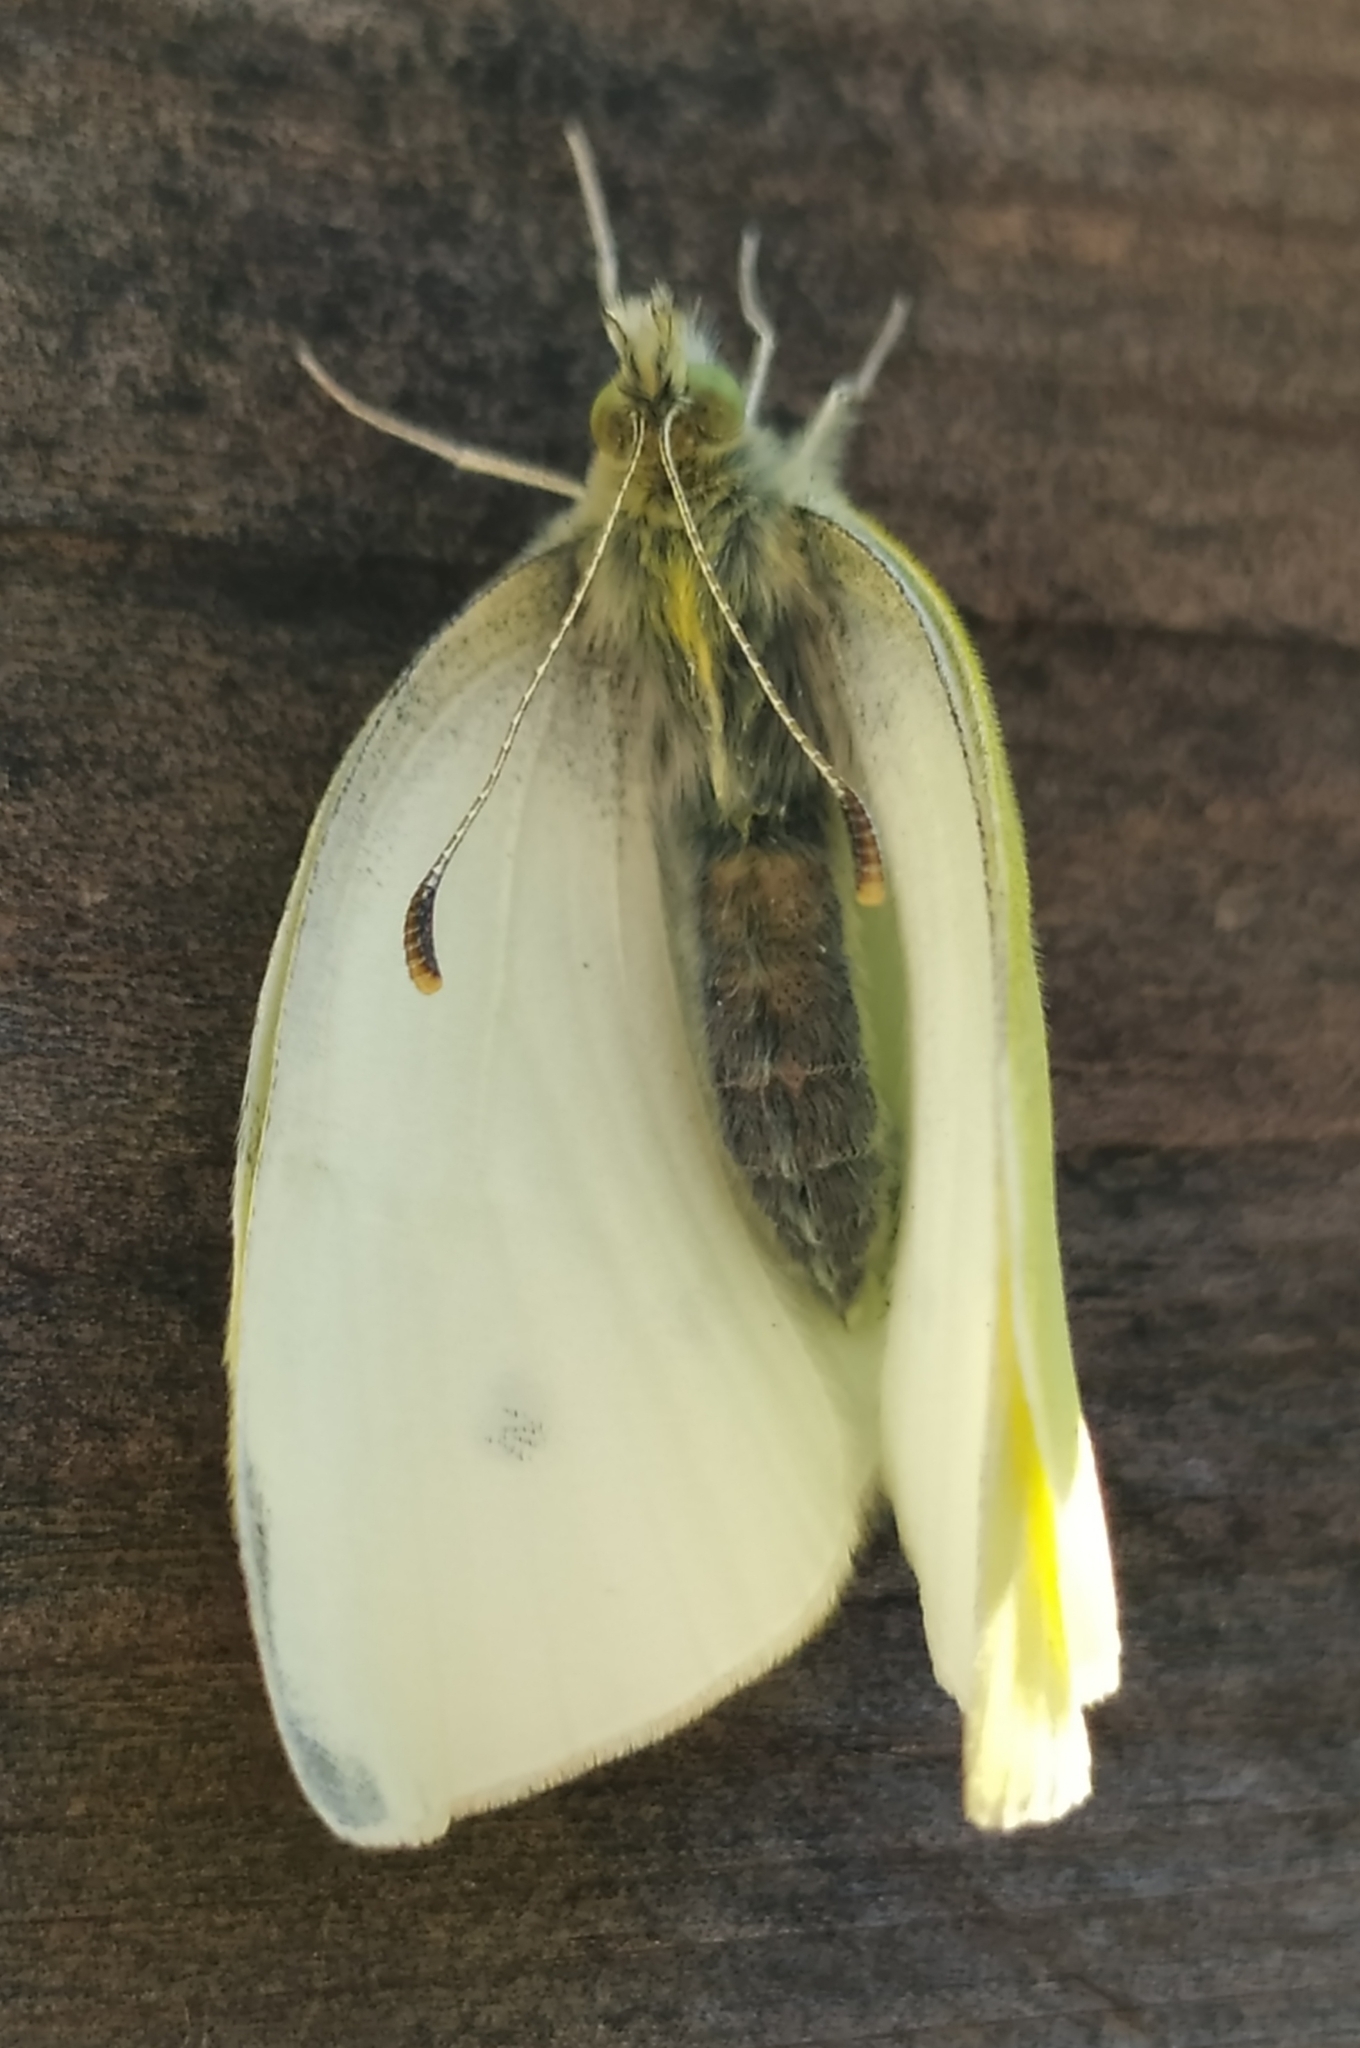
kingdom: Animalia
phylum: Arthropoda
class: Insecta
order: Lepidoptera
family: Pieridae
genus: Pieris
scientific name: Pieris rapae
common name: Small white
